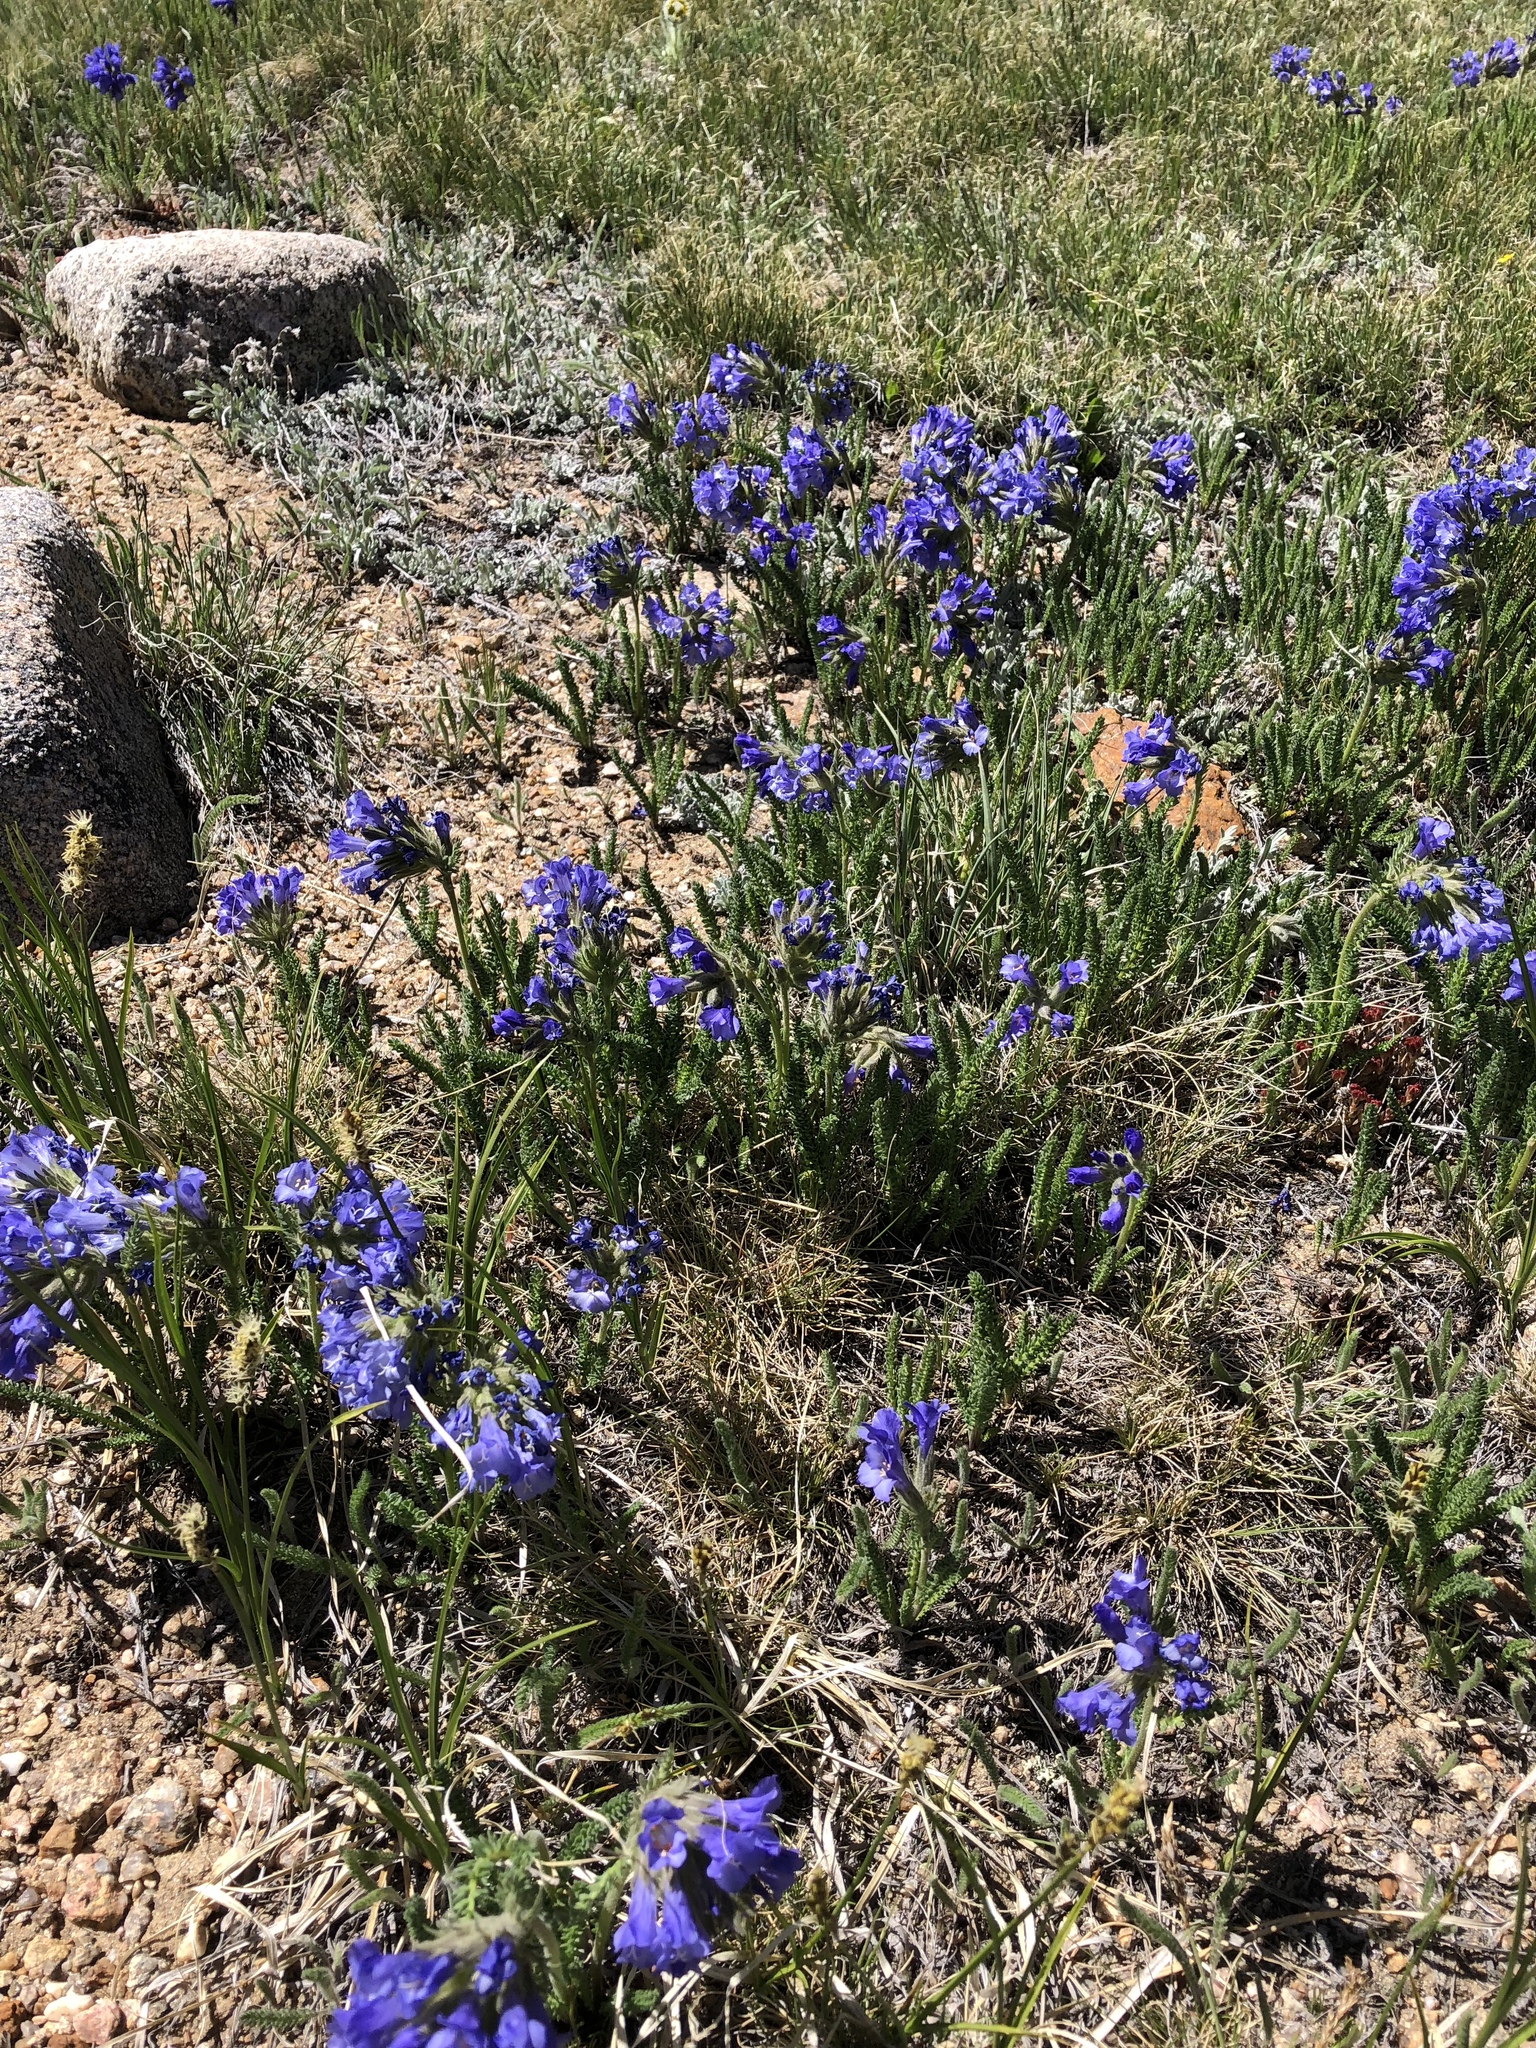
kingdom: Plantae
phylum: Tracheophyta
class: Magnoliopsida
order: Ericales
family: Polemoniaceae
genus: Polemonium
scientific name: Polemonium viscosum
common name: Skunk jacob's-ladder
